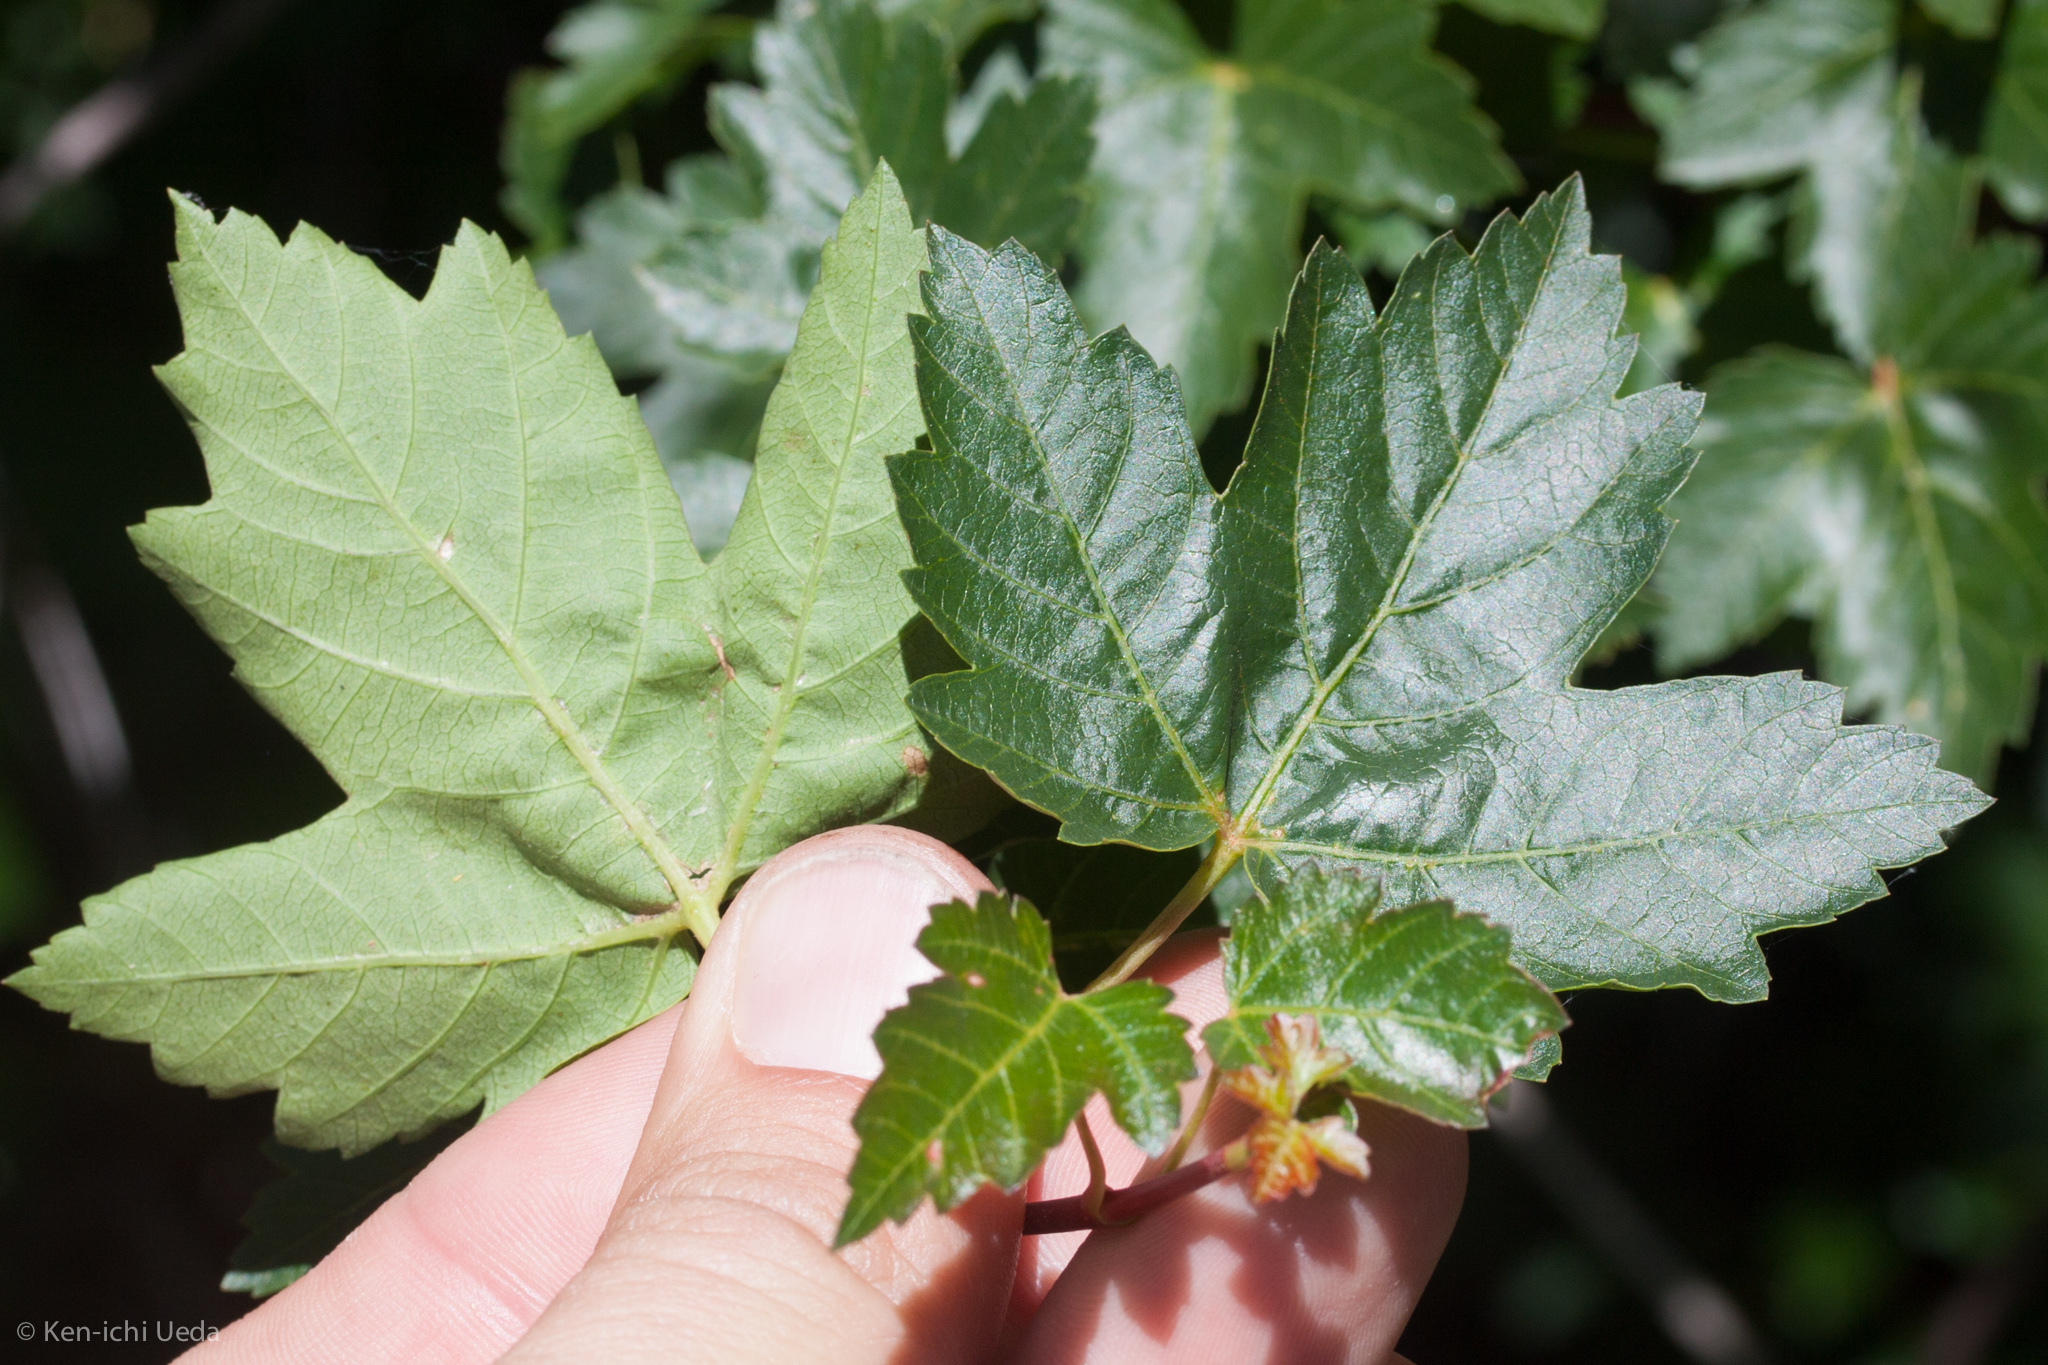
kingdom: Plantae
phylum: Tracheophyta
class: Magnoliopsida
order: Sapindales
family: Sapindaceae
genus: Acer
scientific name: Acer glabrum
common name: Rocky mountain maple
